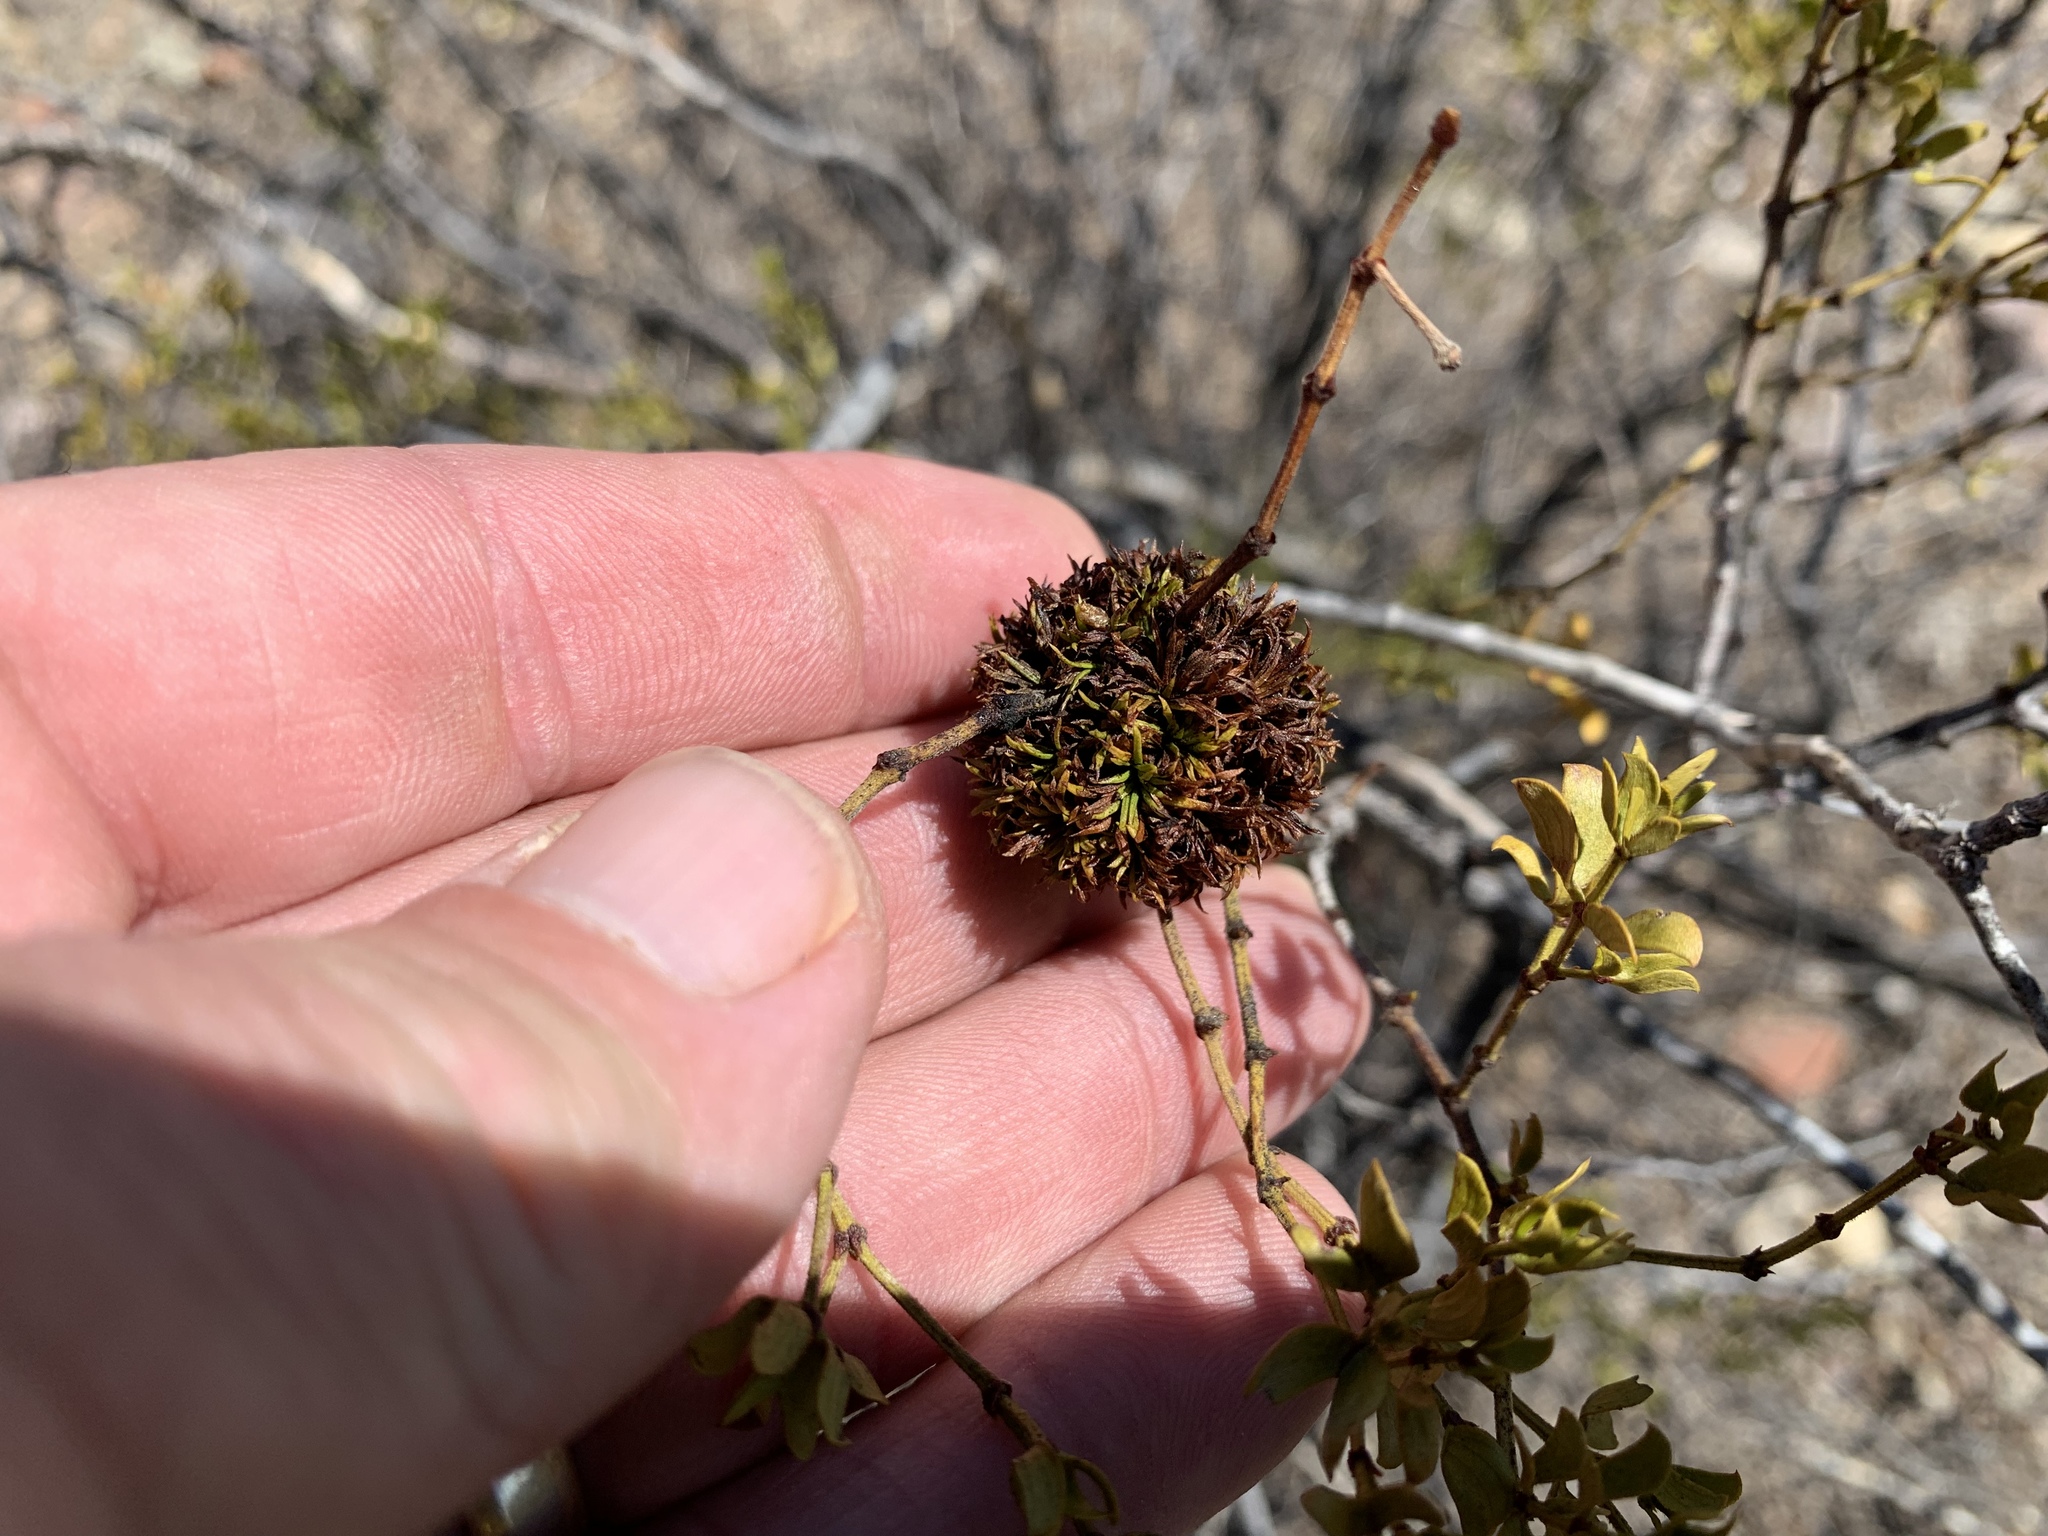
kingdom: Animalia
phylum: Arthropoda
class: Insecta
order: Diptera
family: Cecidomyiidae
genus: Asphondylia
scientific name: Asphondylia auripila
